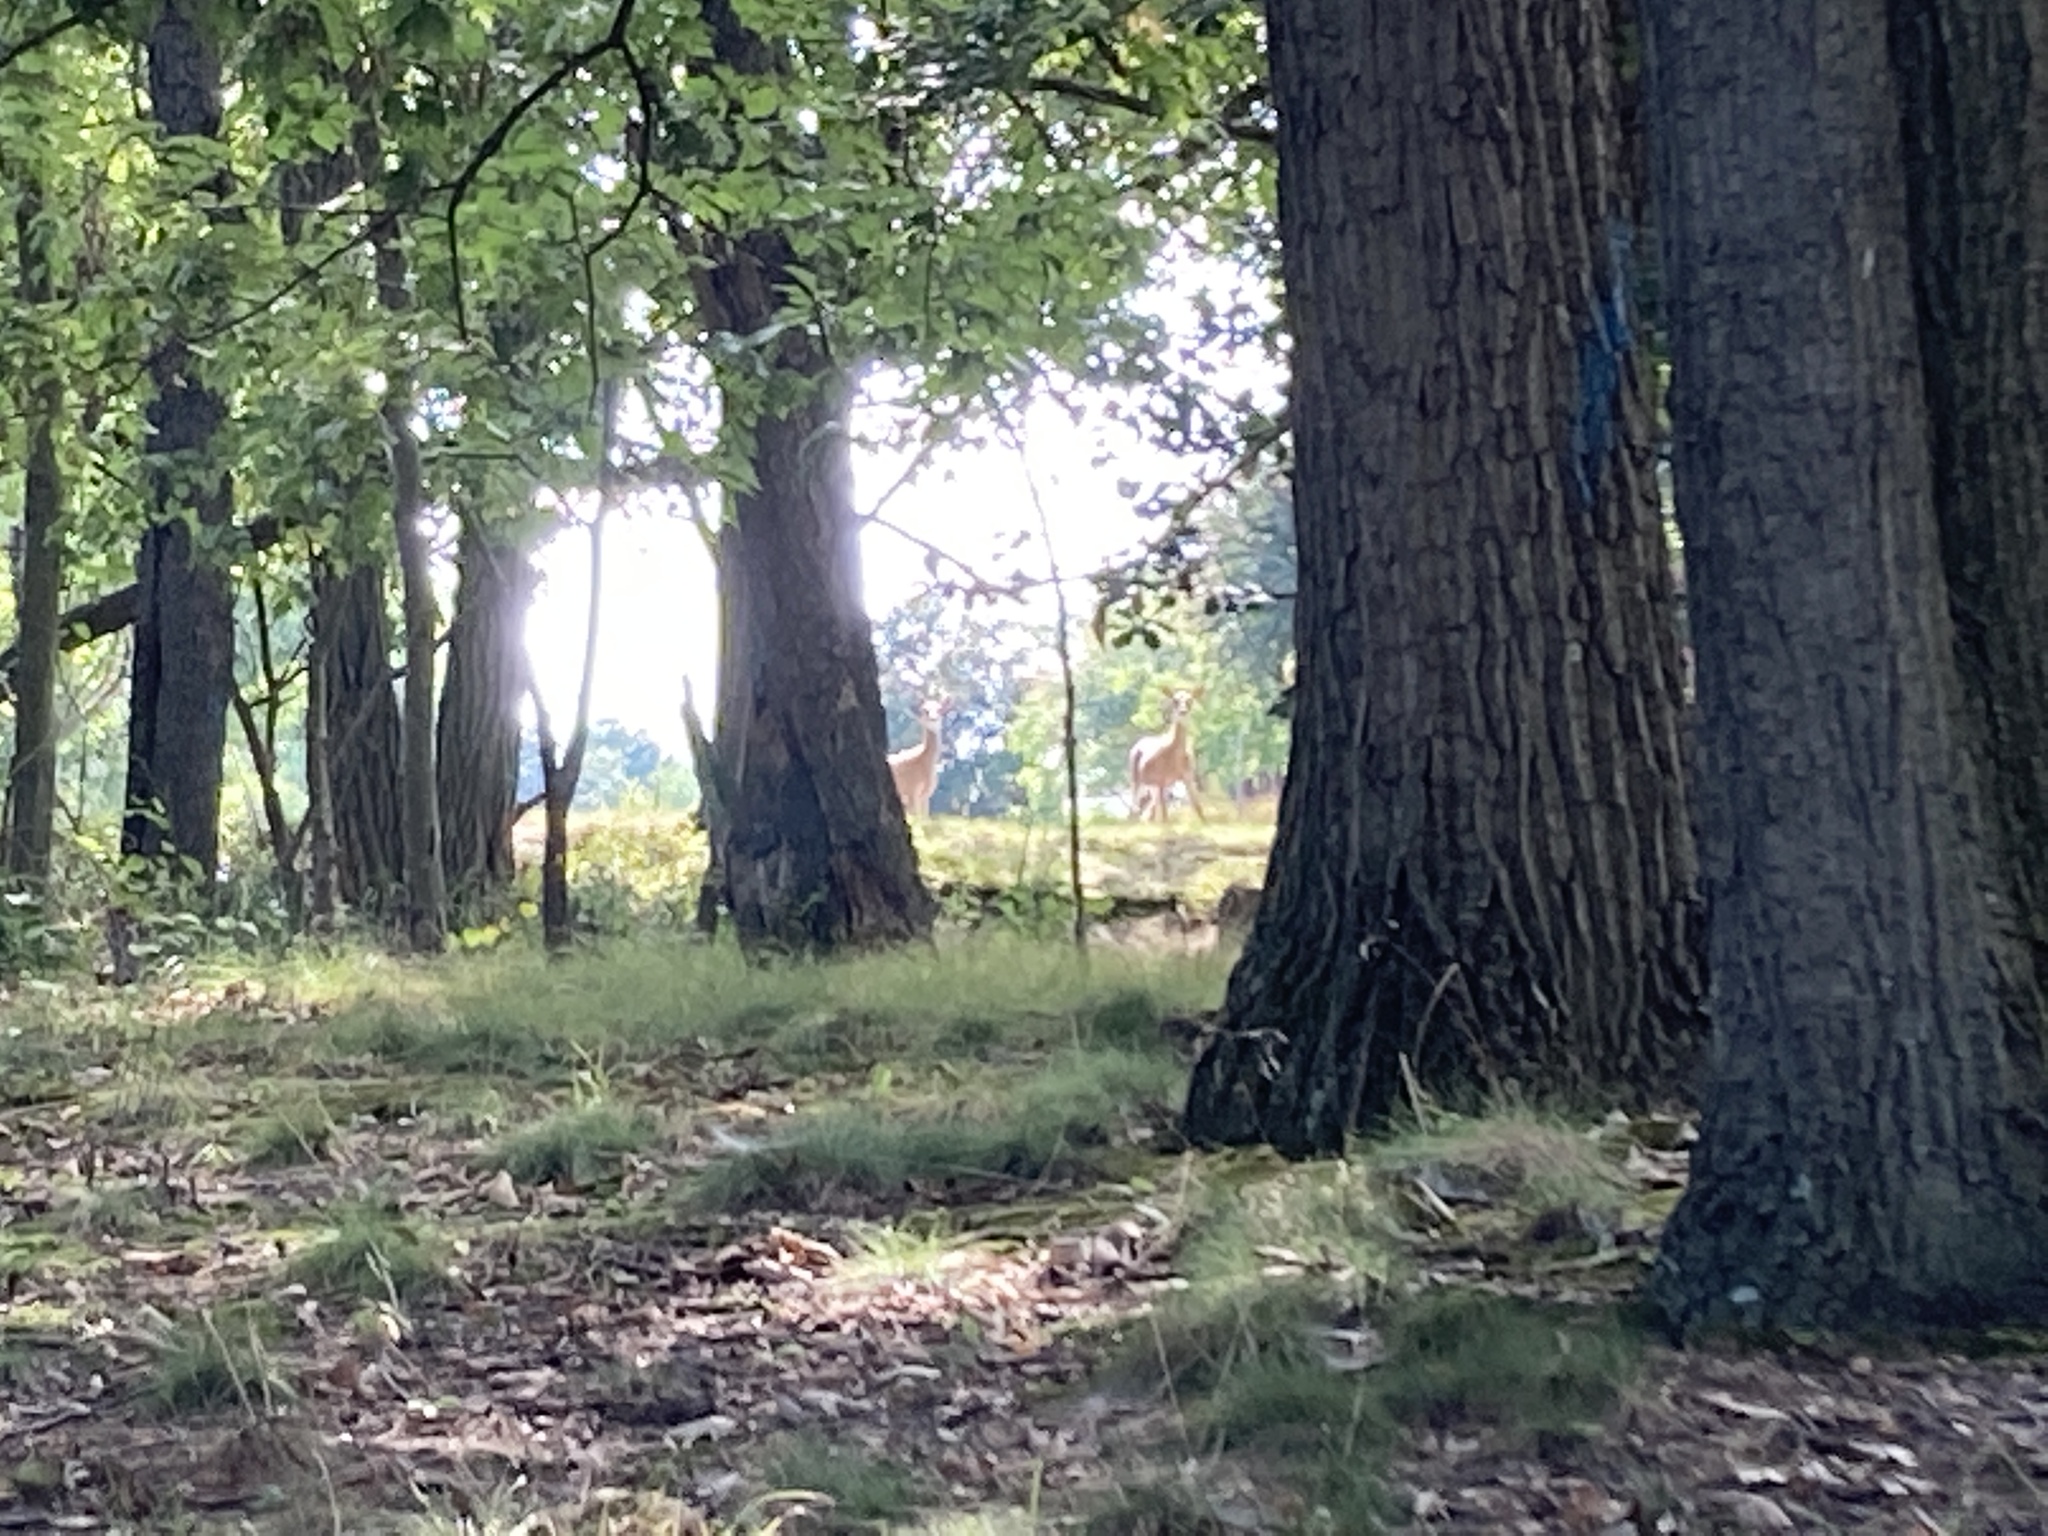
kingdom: Animalia
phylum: Chordata
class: Mammalia
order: Artiodactyla
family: Cervidae
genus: Odocoileus
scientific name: Odocoileus virginianus
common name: White-tailed deer
